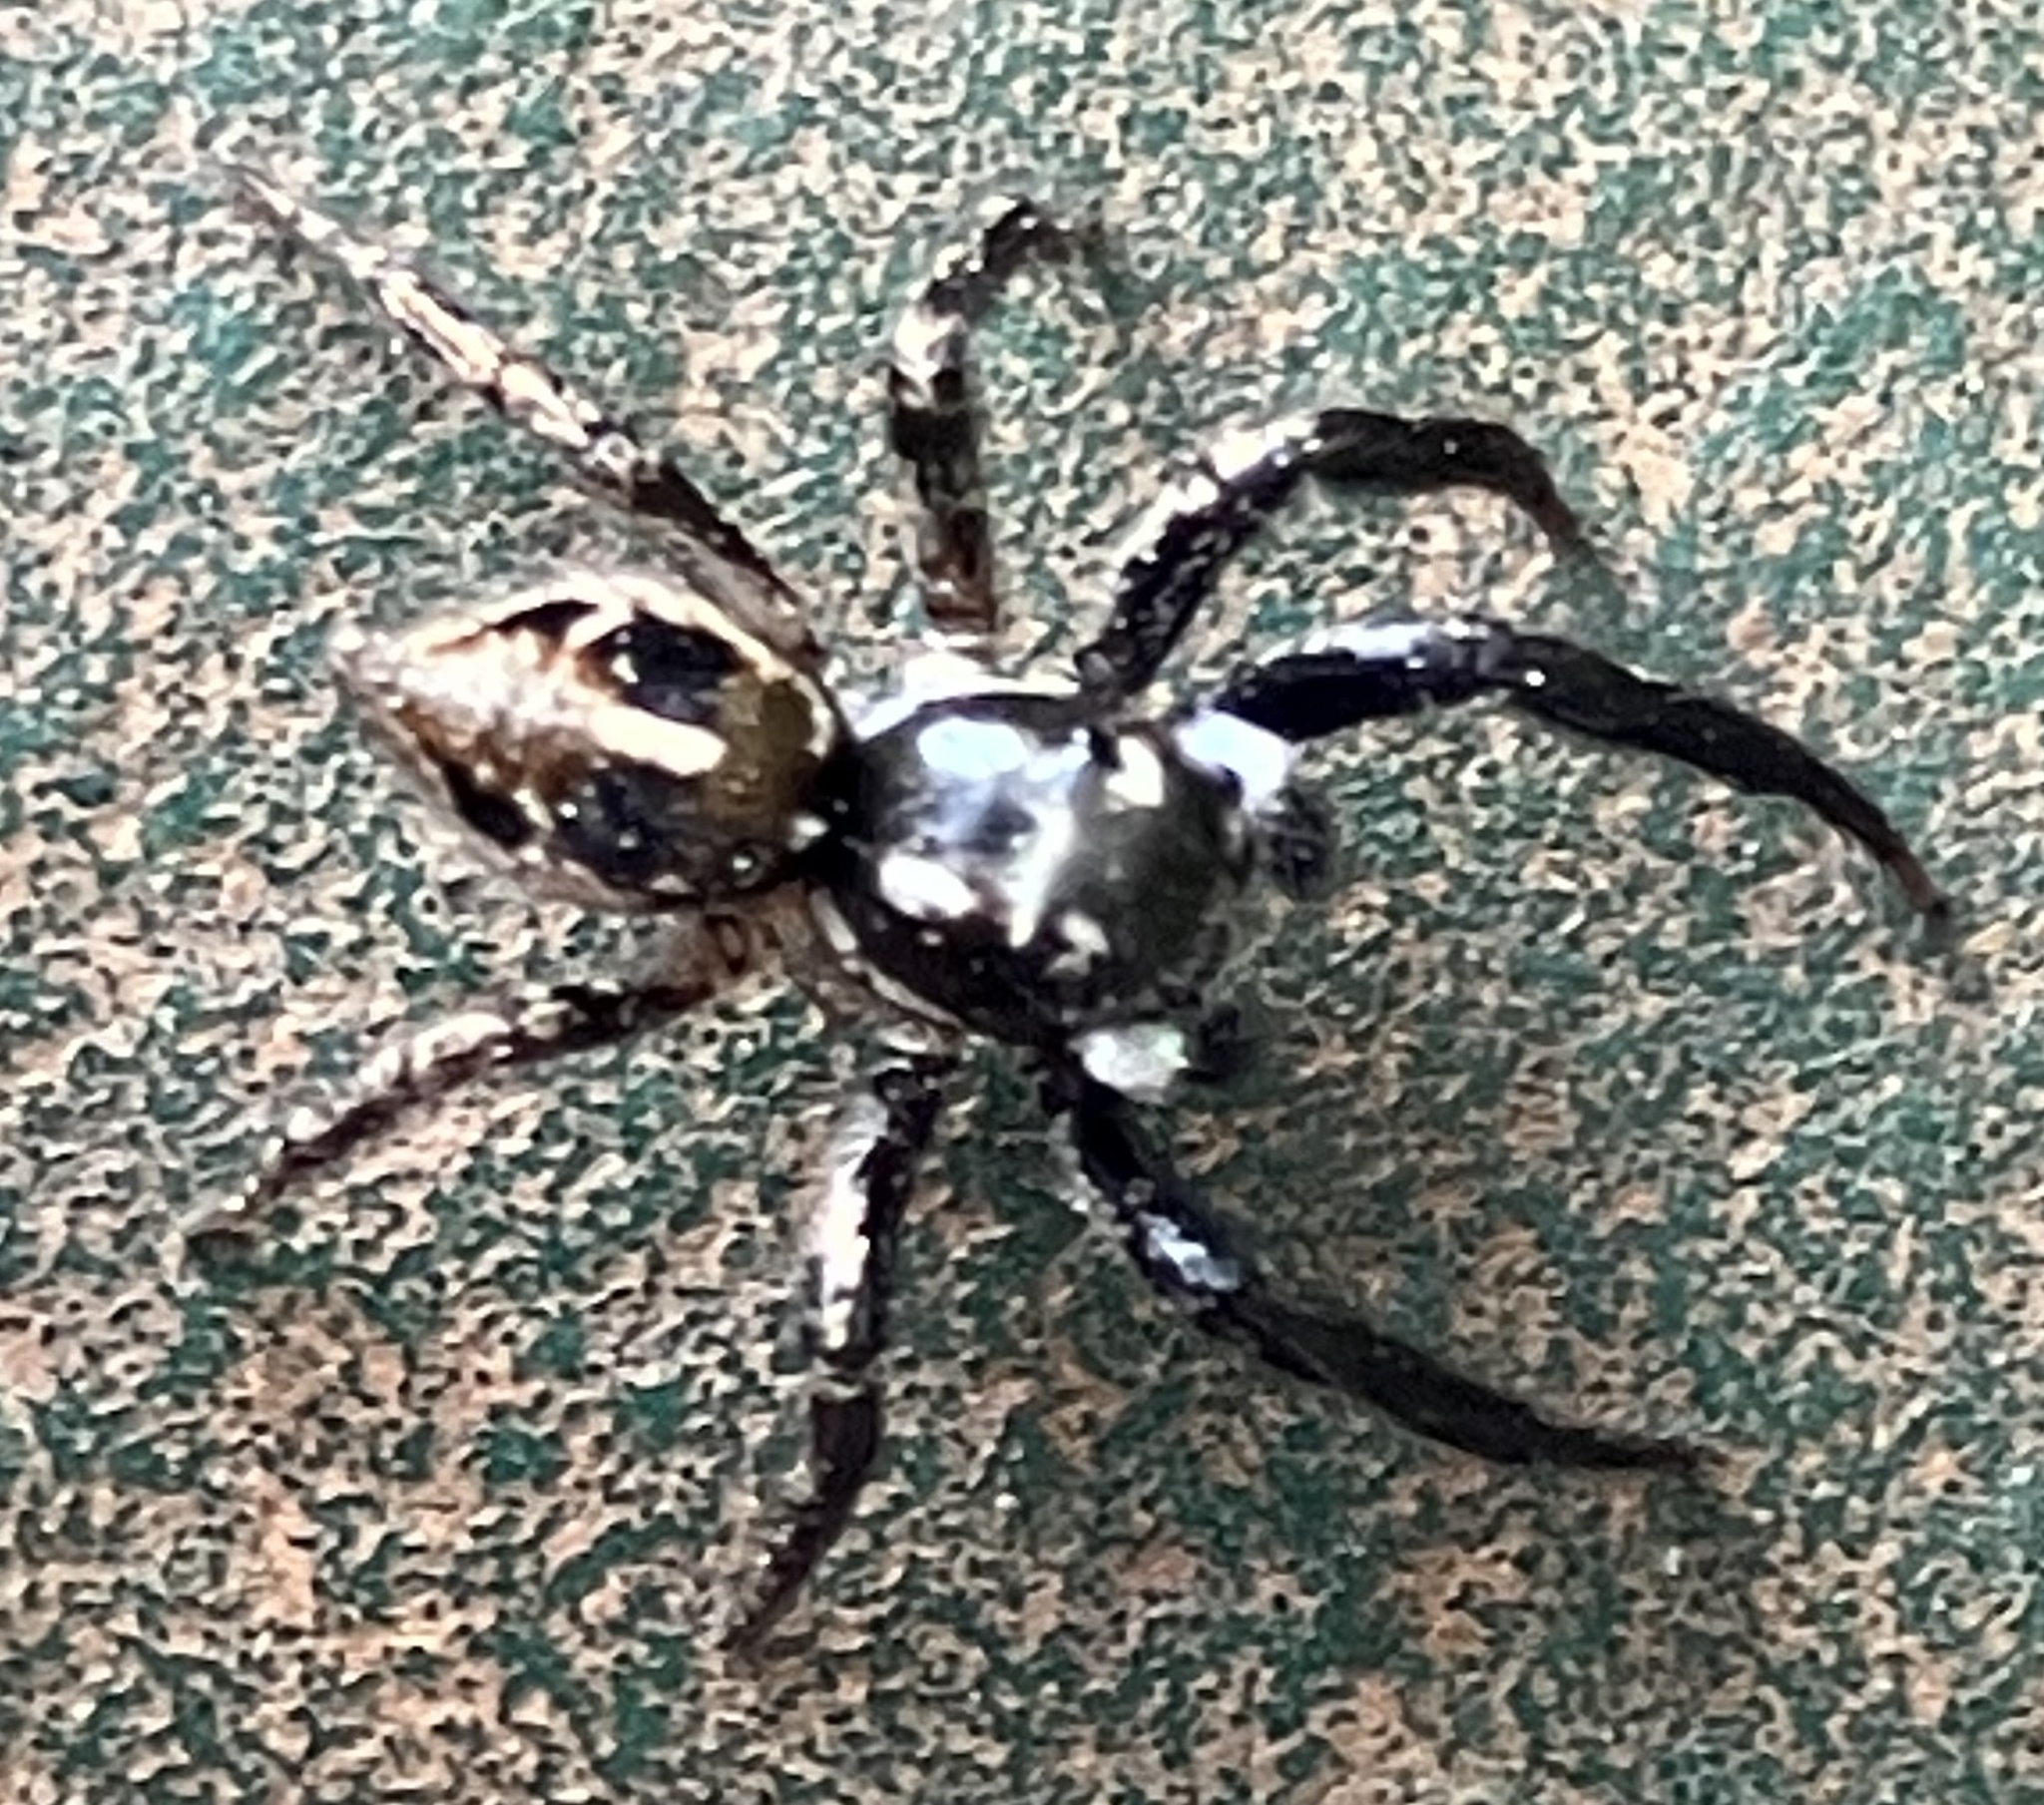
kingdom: Animalia
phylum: Arthropoda
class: Arachnida
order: Araneae
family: Salticidae
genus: Anasaitis
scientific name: Anasaitis canosa
